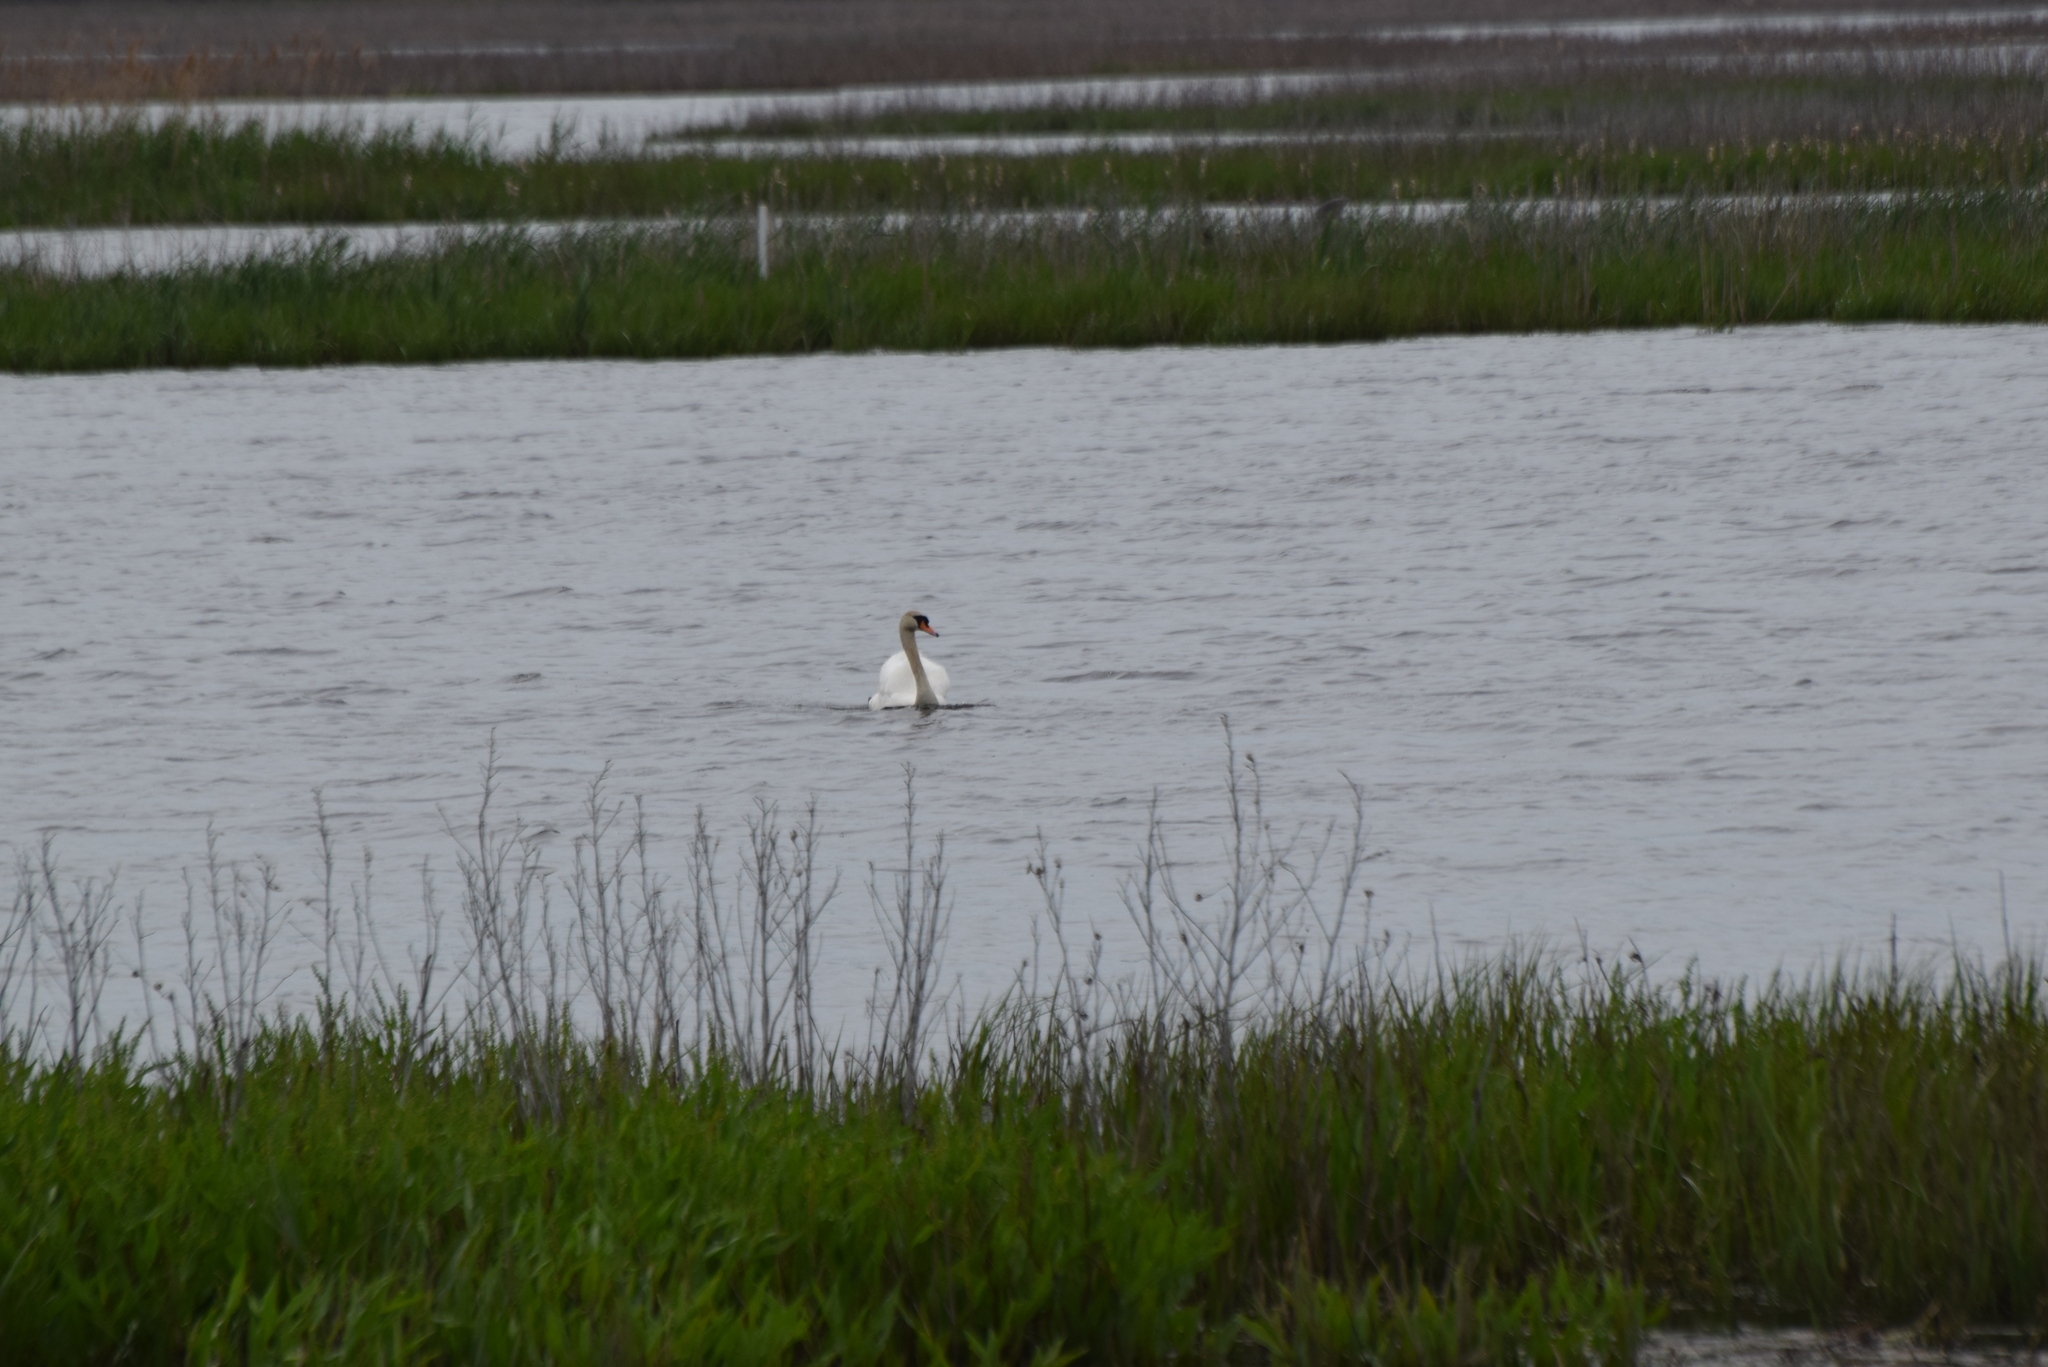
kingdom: Animalia
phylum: Chordata
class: Aves
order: Anseriformes
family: Anatidae
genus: Cygnus
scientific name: Cygnus olor
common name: Mute swan
